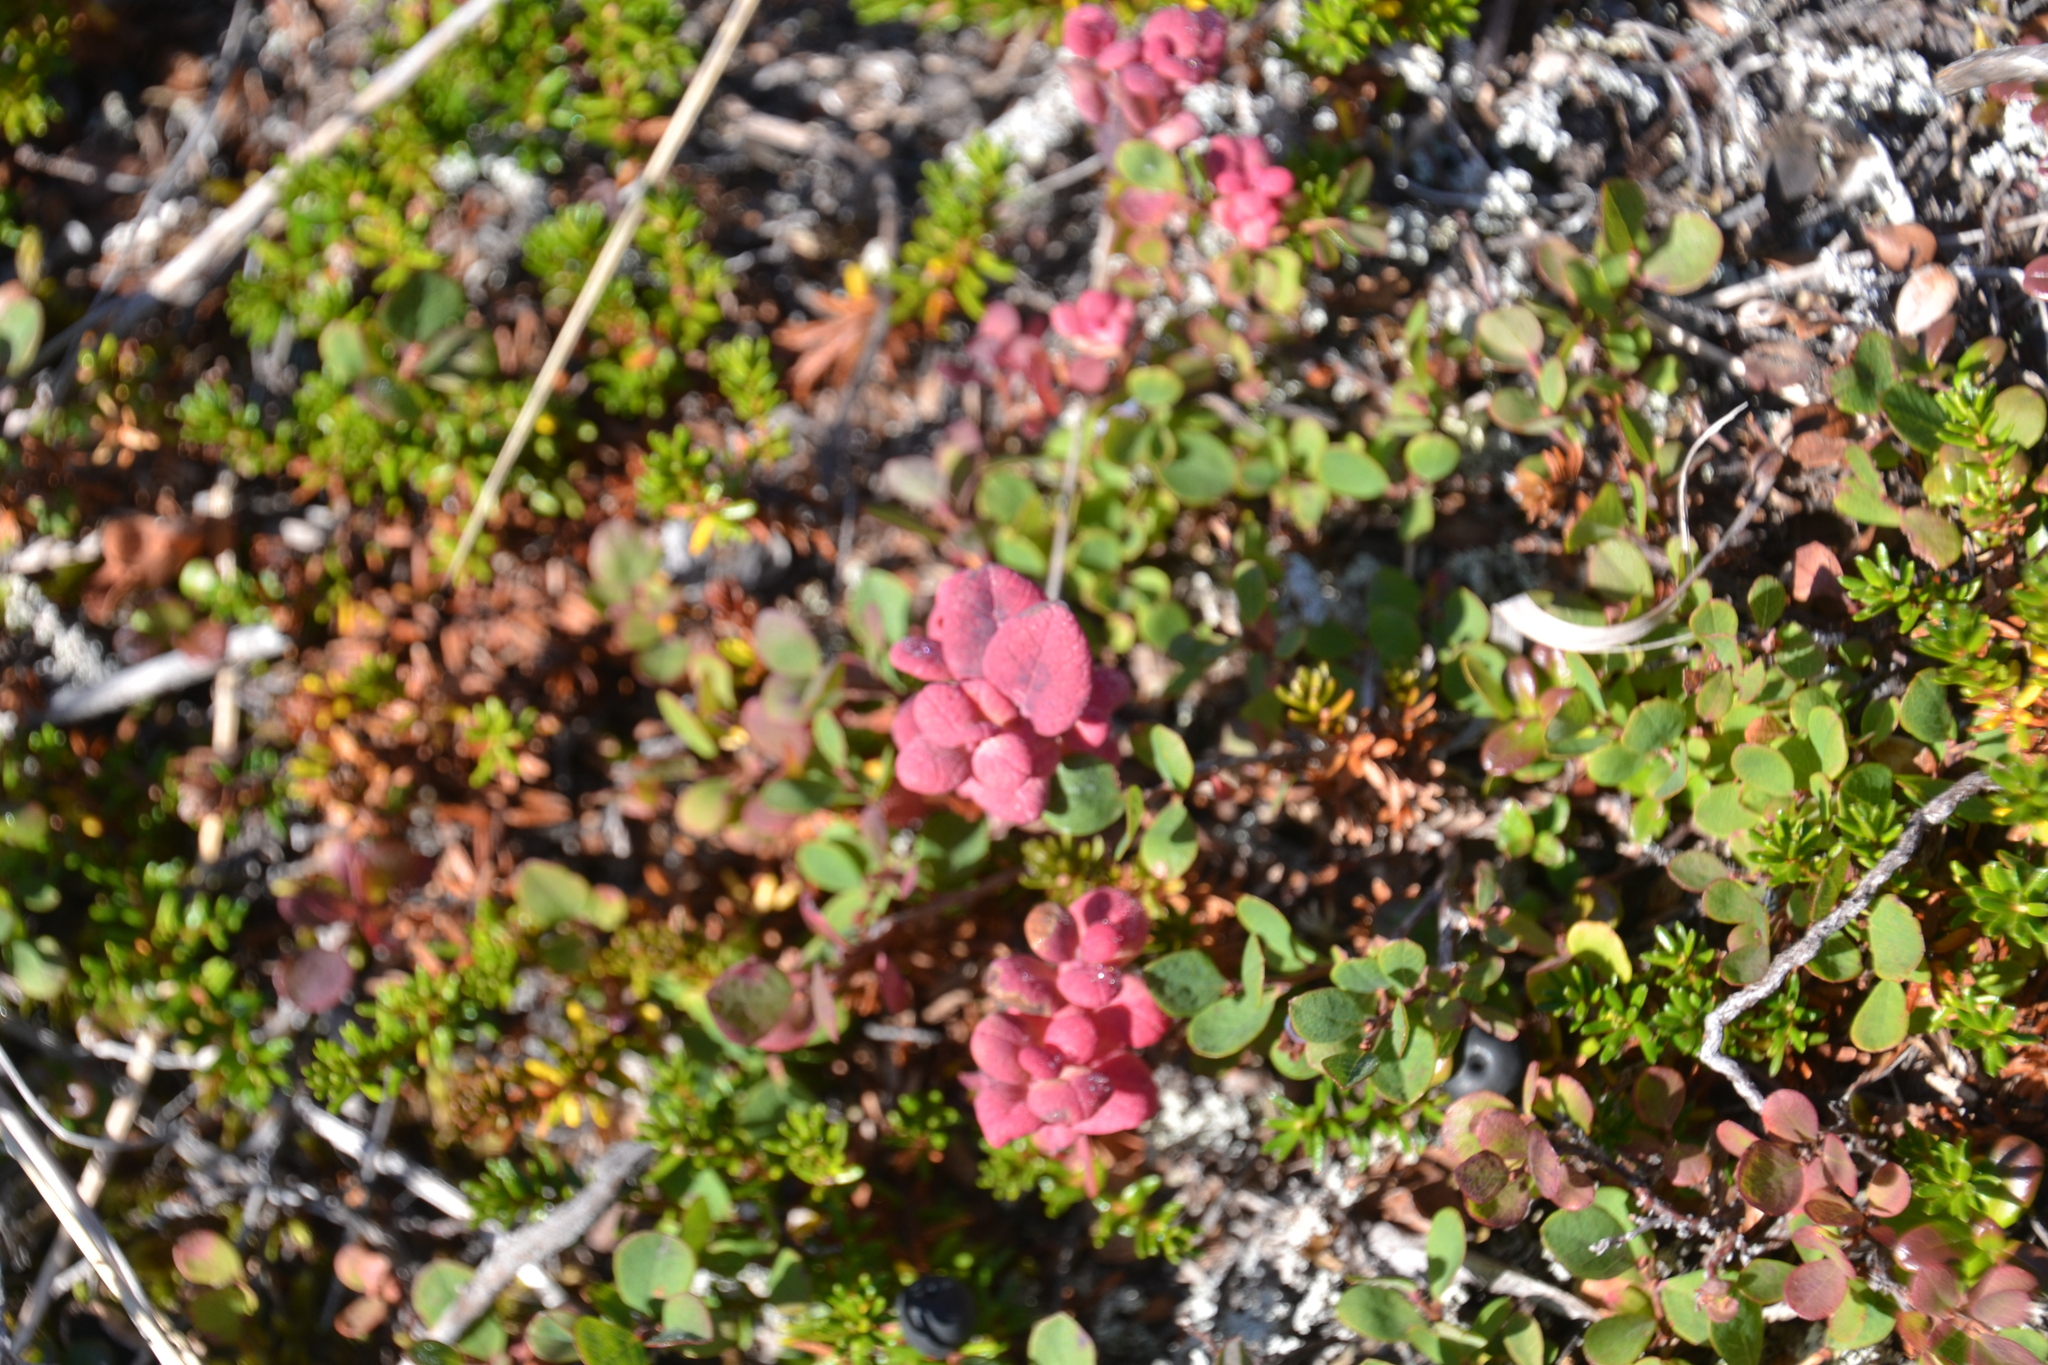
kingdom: Plantae
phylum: Tracheophyta
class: Magnoliopsida
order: Ericales
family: Ericaceae
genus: Vaccinium
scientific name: Vaccinium uliginosum
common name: Bog bilberry
